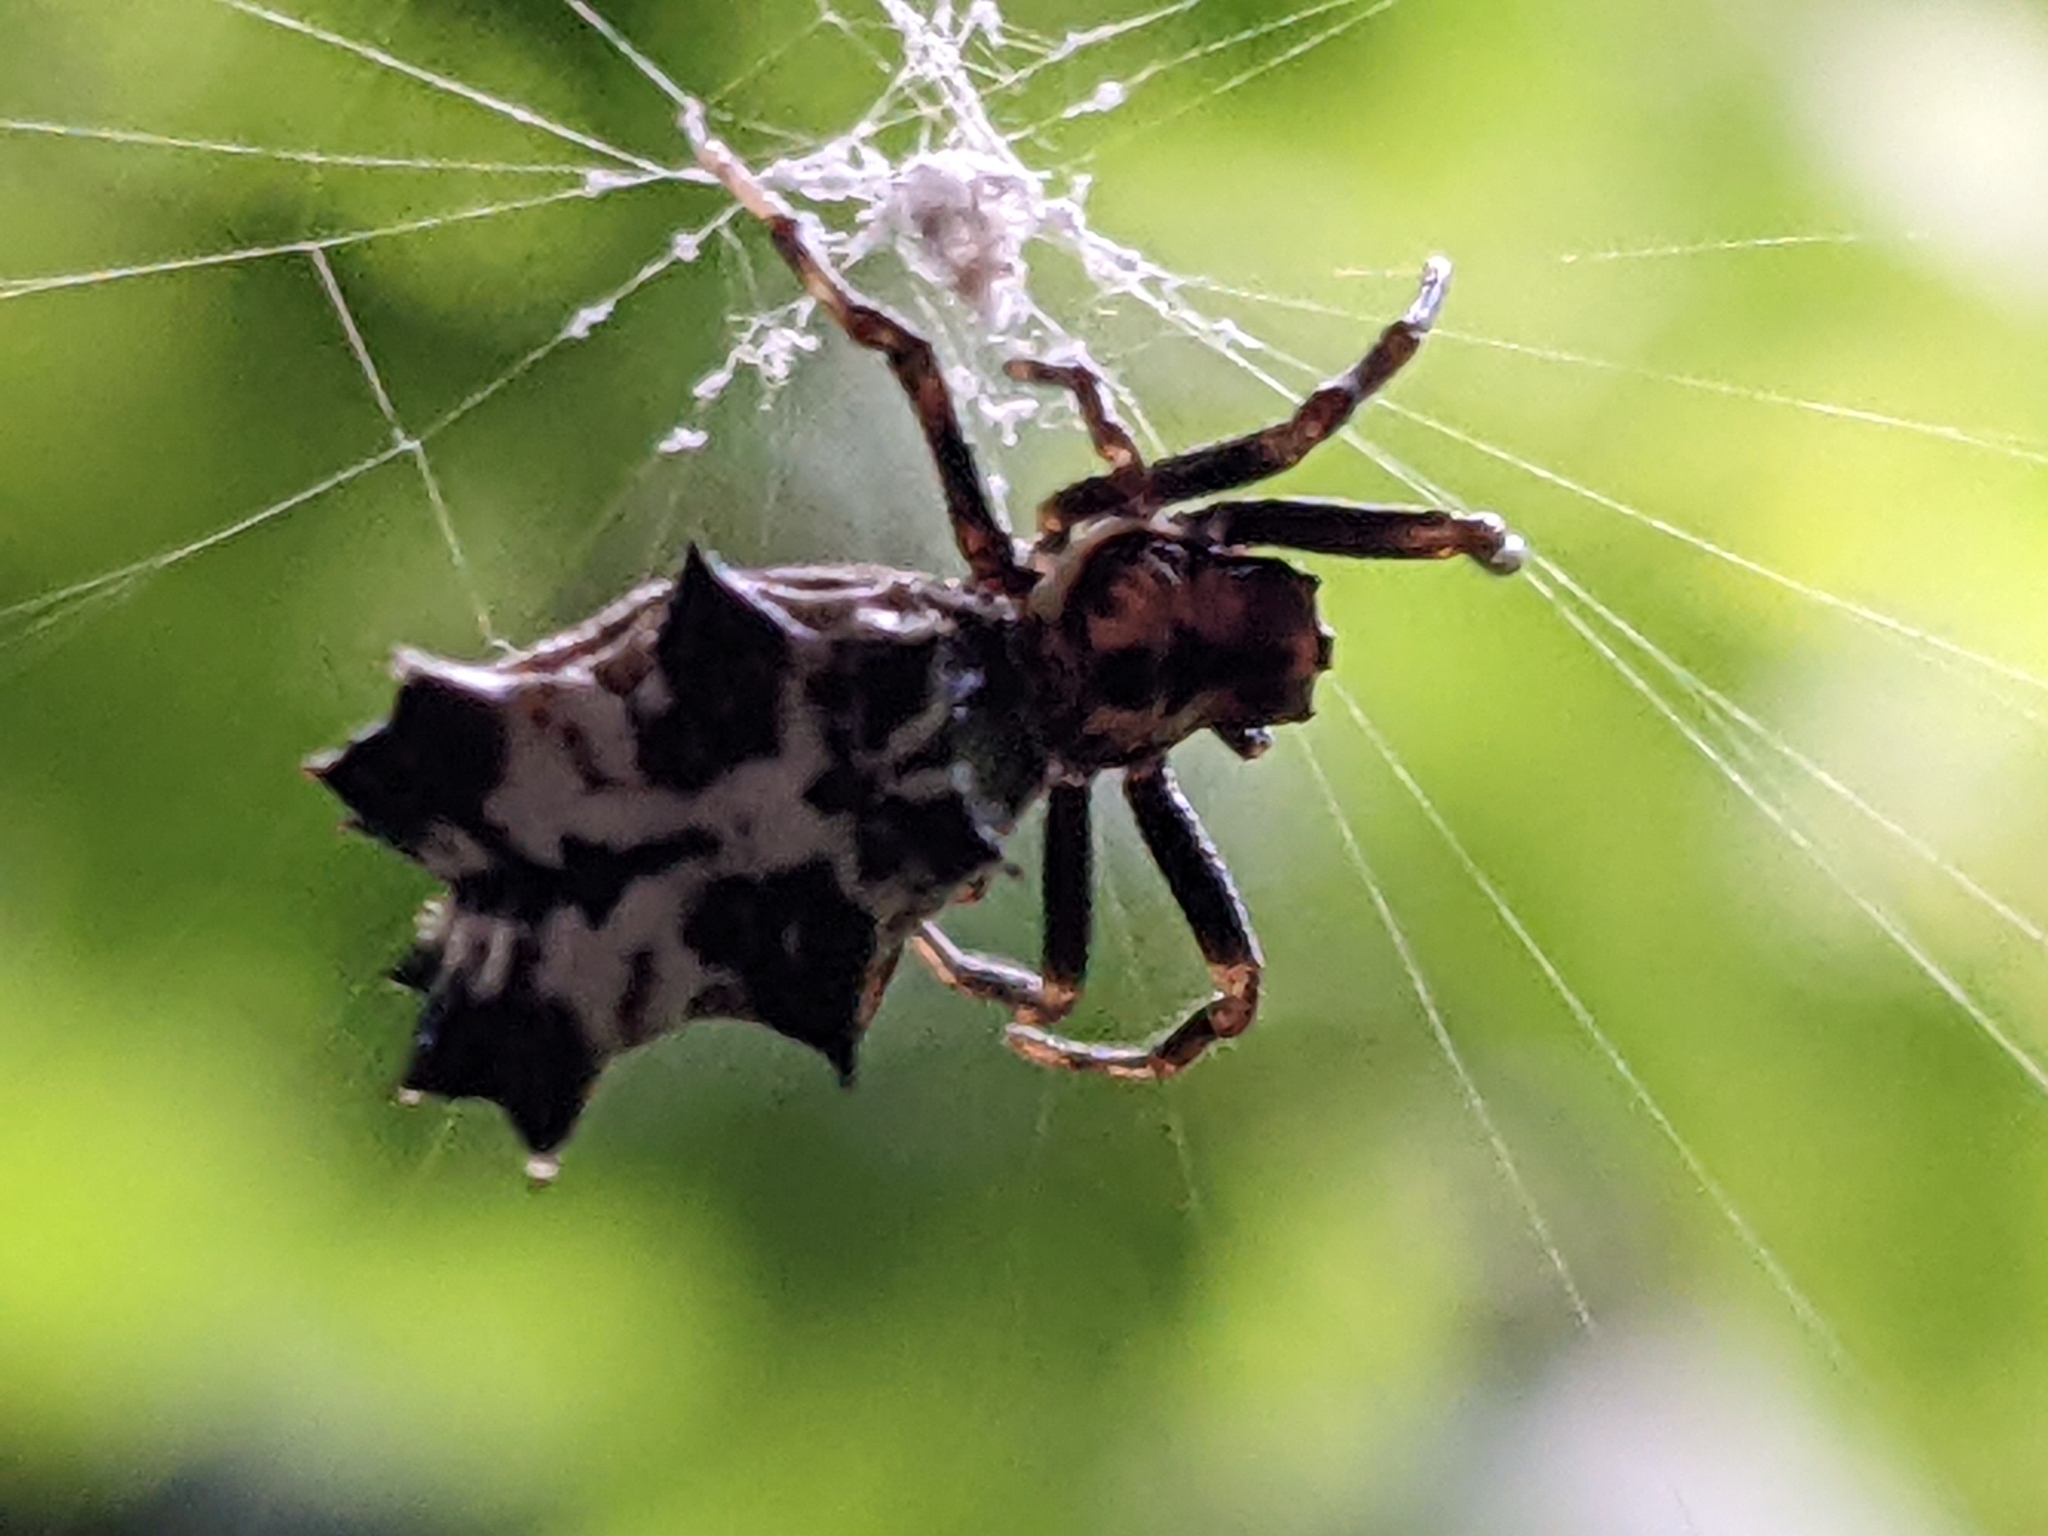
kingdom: Animalia
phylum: Arthropoda
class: Arachnida
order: Araneae
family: Araneidae
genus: Micrathena
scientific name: Micrathena gracilis
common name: Orb weavers
